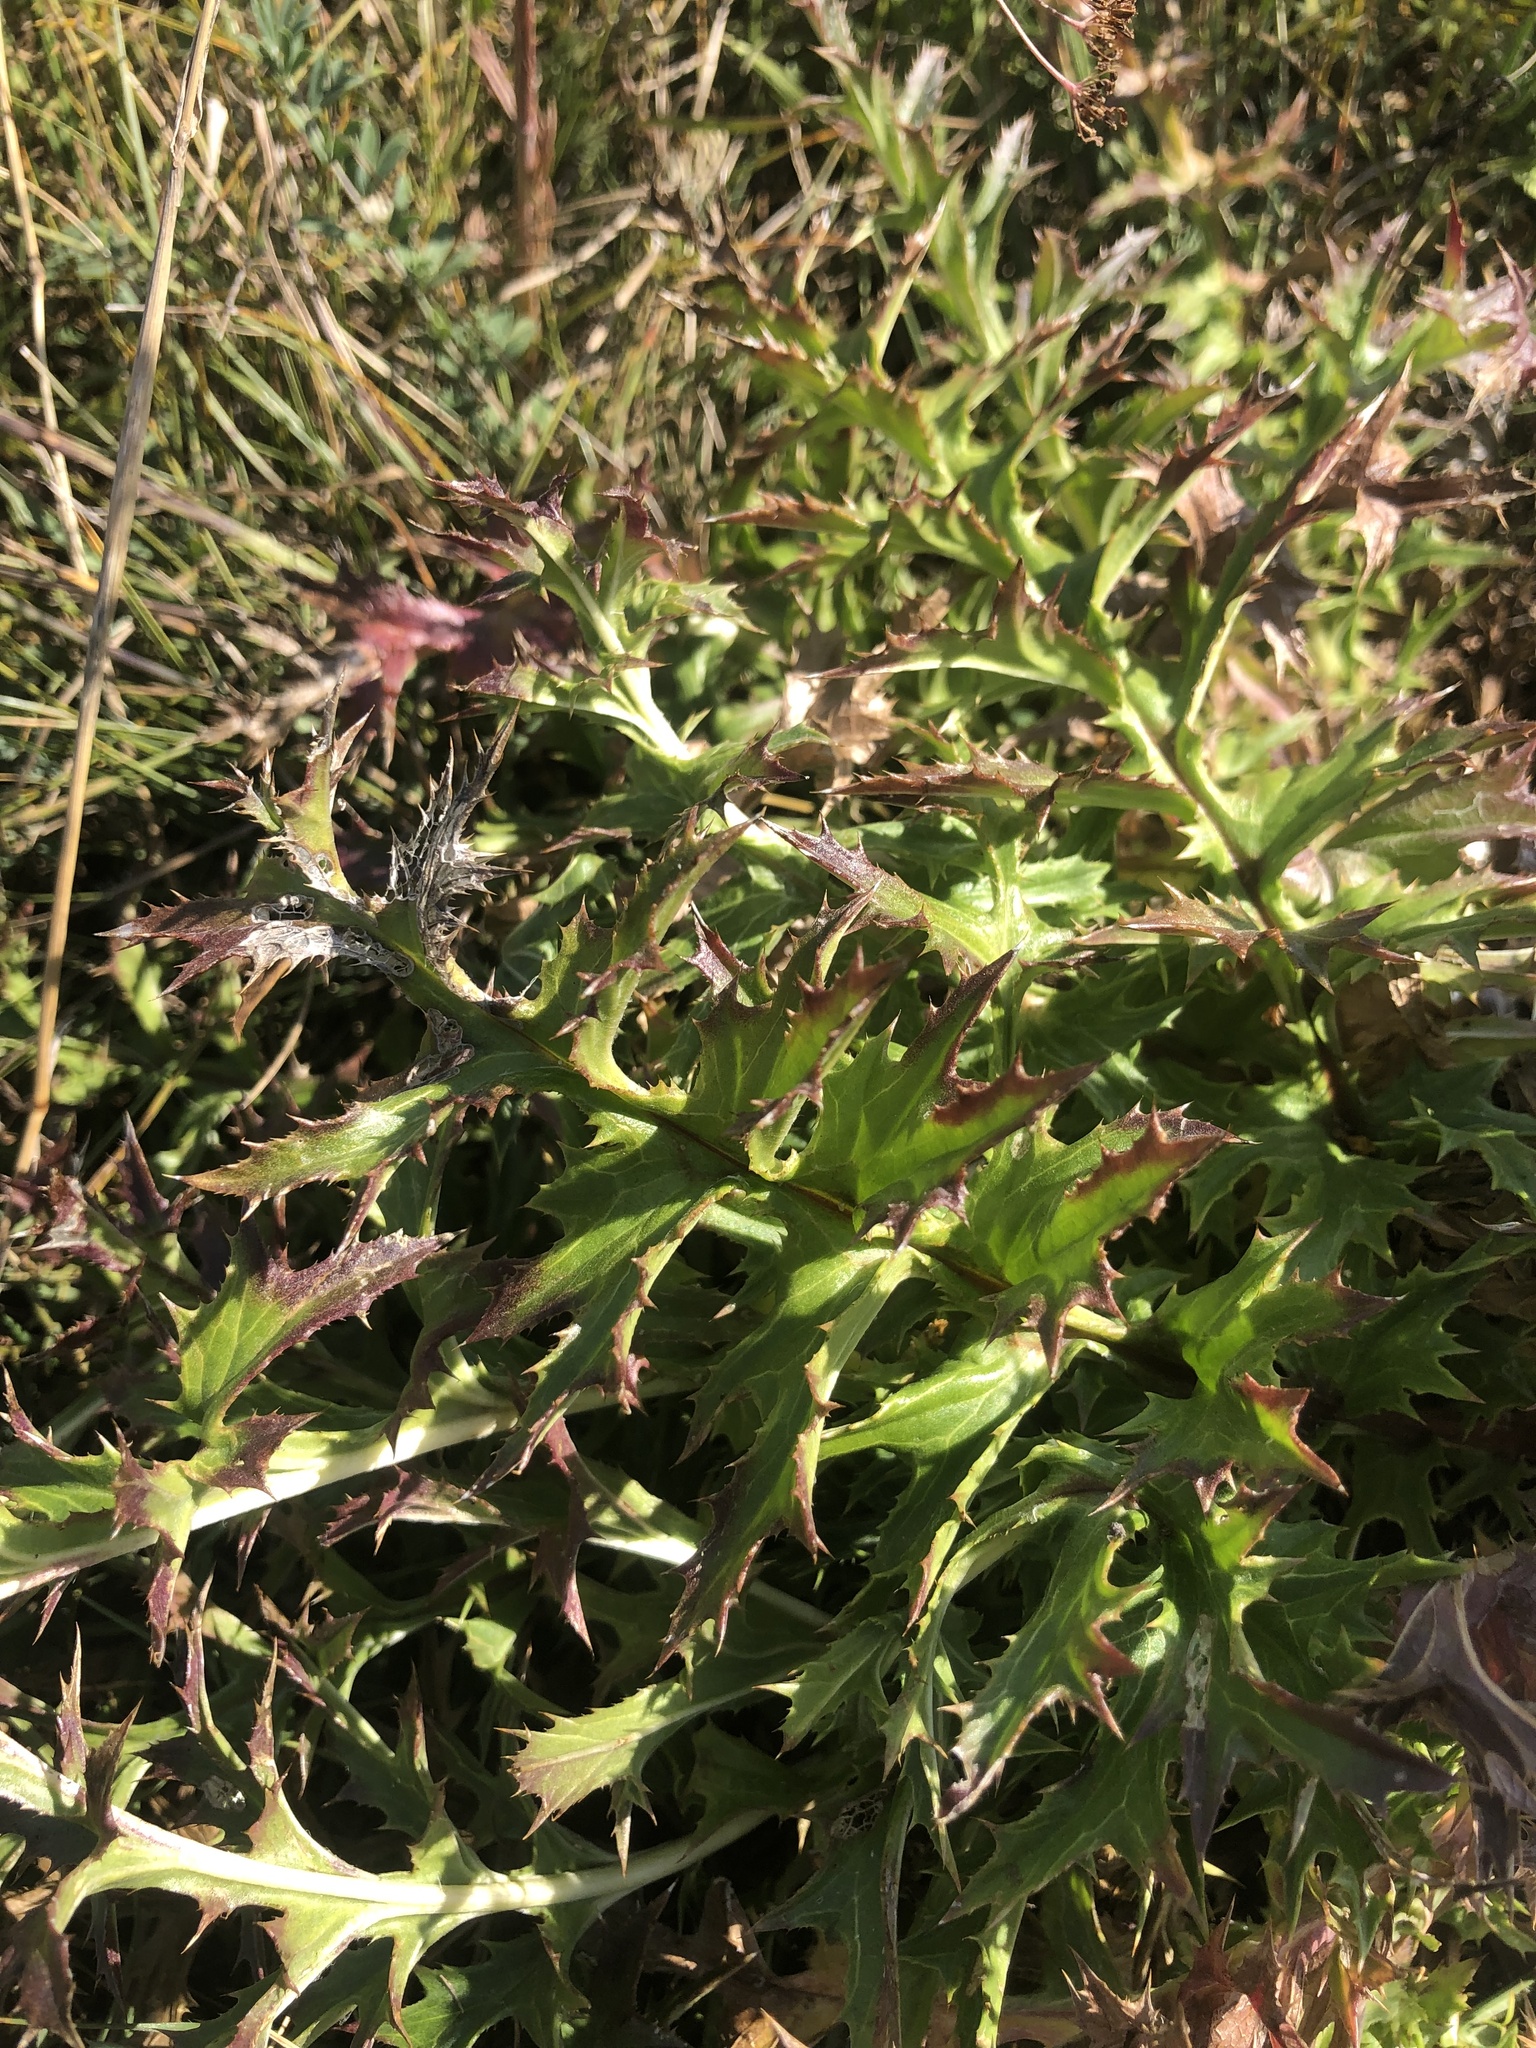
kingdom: Plantae
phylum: Tracheophyta
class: Magnoliopsida
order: Asterales
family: Asteraceae
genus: Carlina
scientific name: Carlina acaulis
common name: Stemless carline thistle
